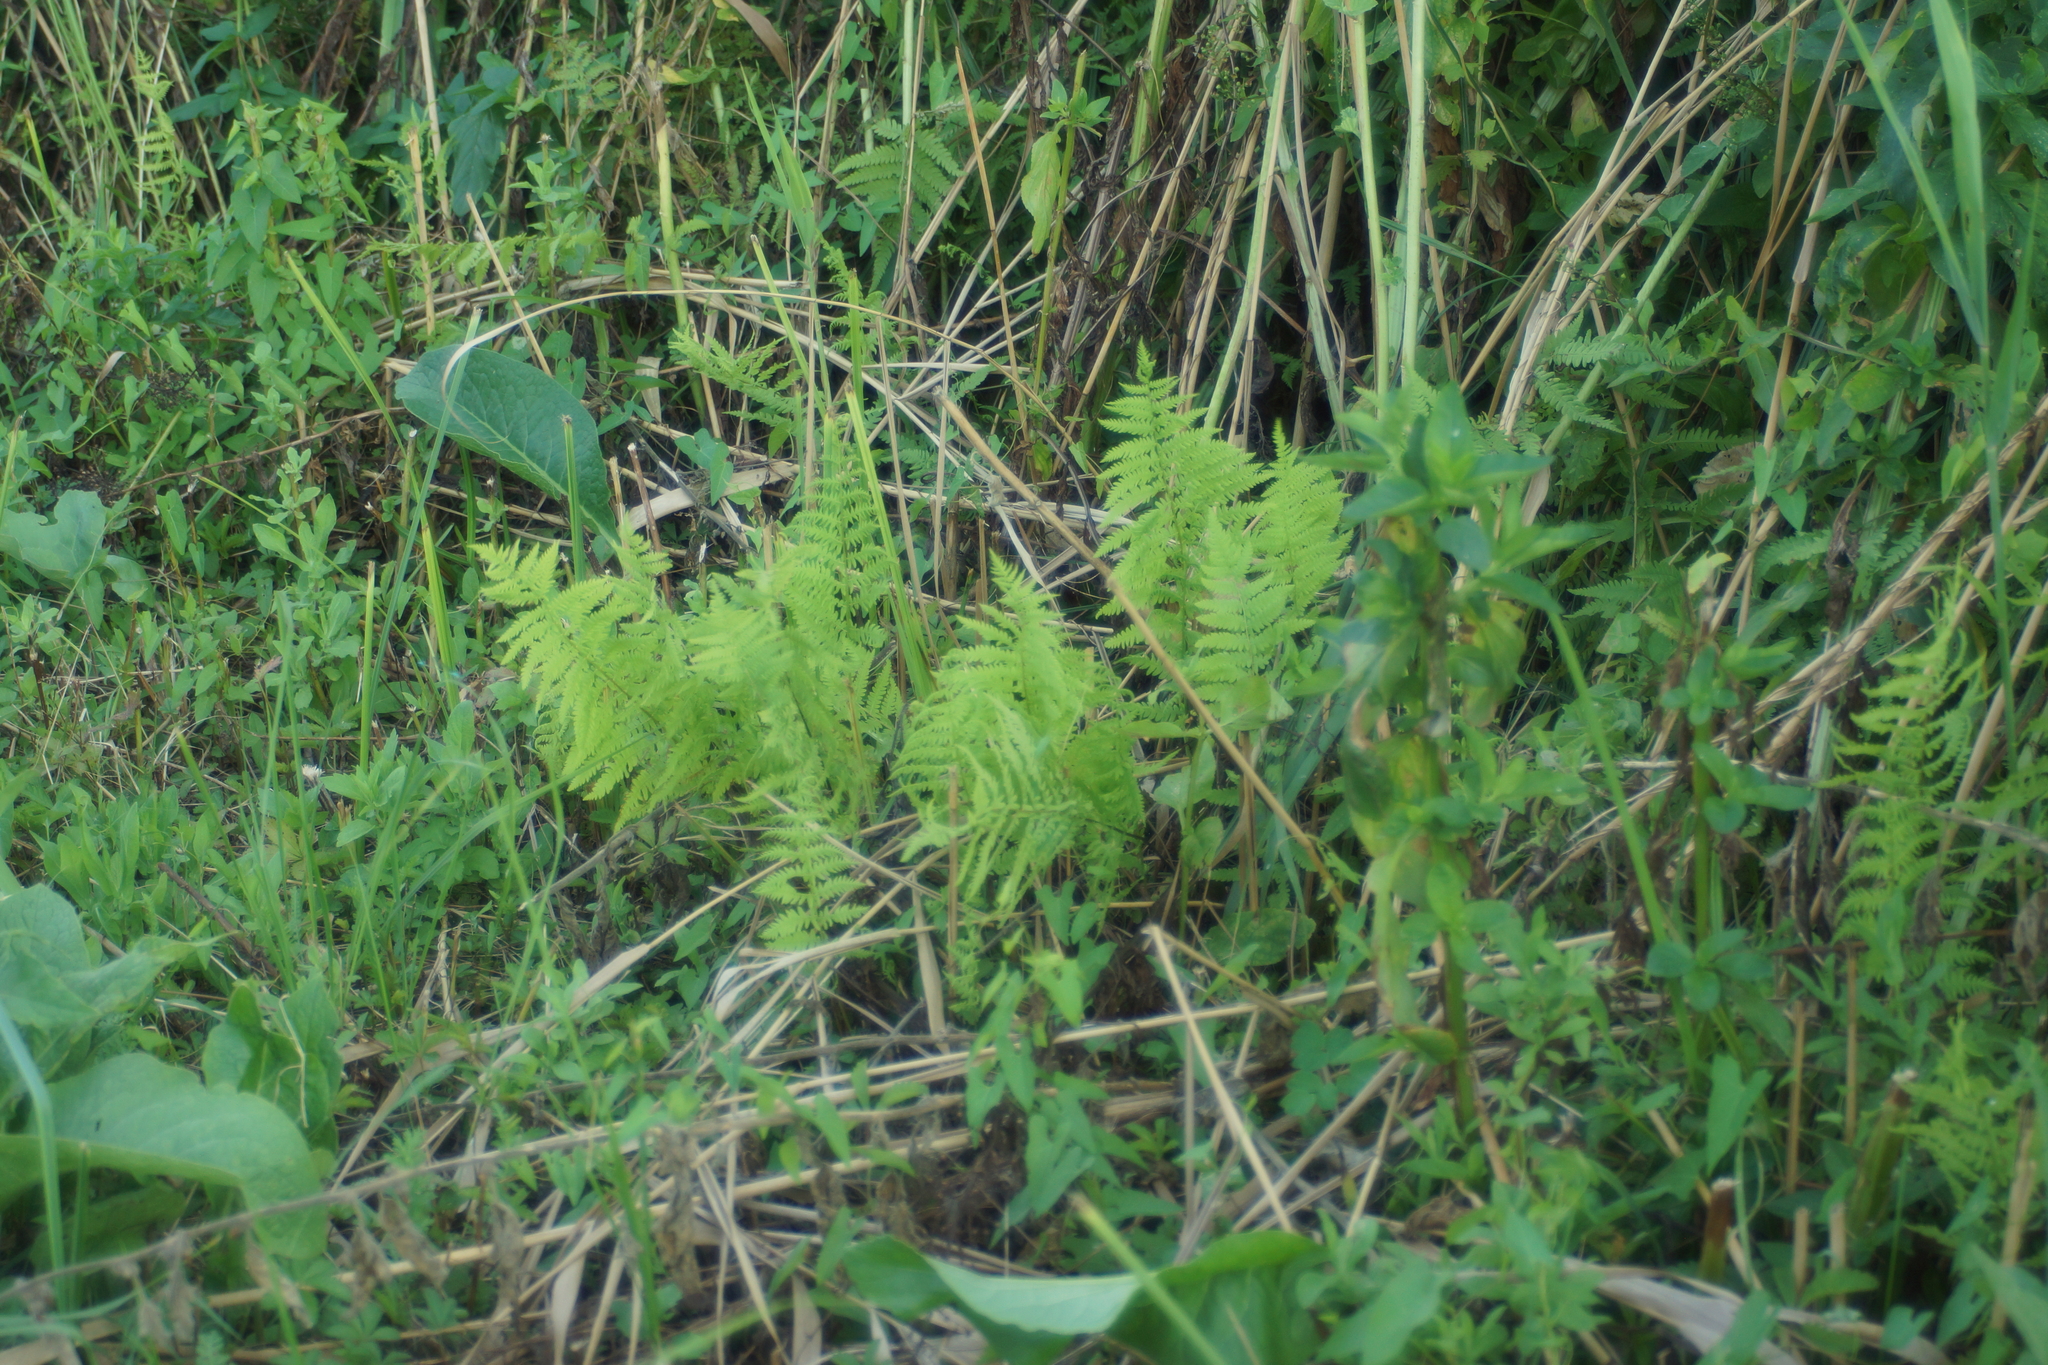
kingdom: Plantae
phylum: Tracheophyta
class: Polypodiopsida
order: Polypodiales
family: Thelypteridaceae
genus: Thelypteris
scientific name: Thelypteris palustris
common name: Marsh fern
